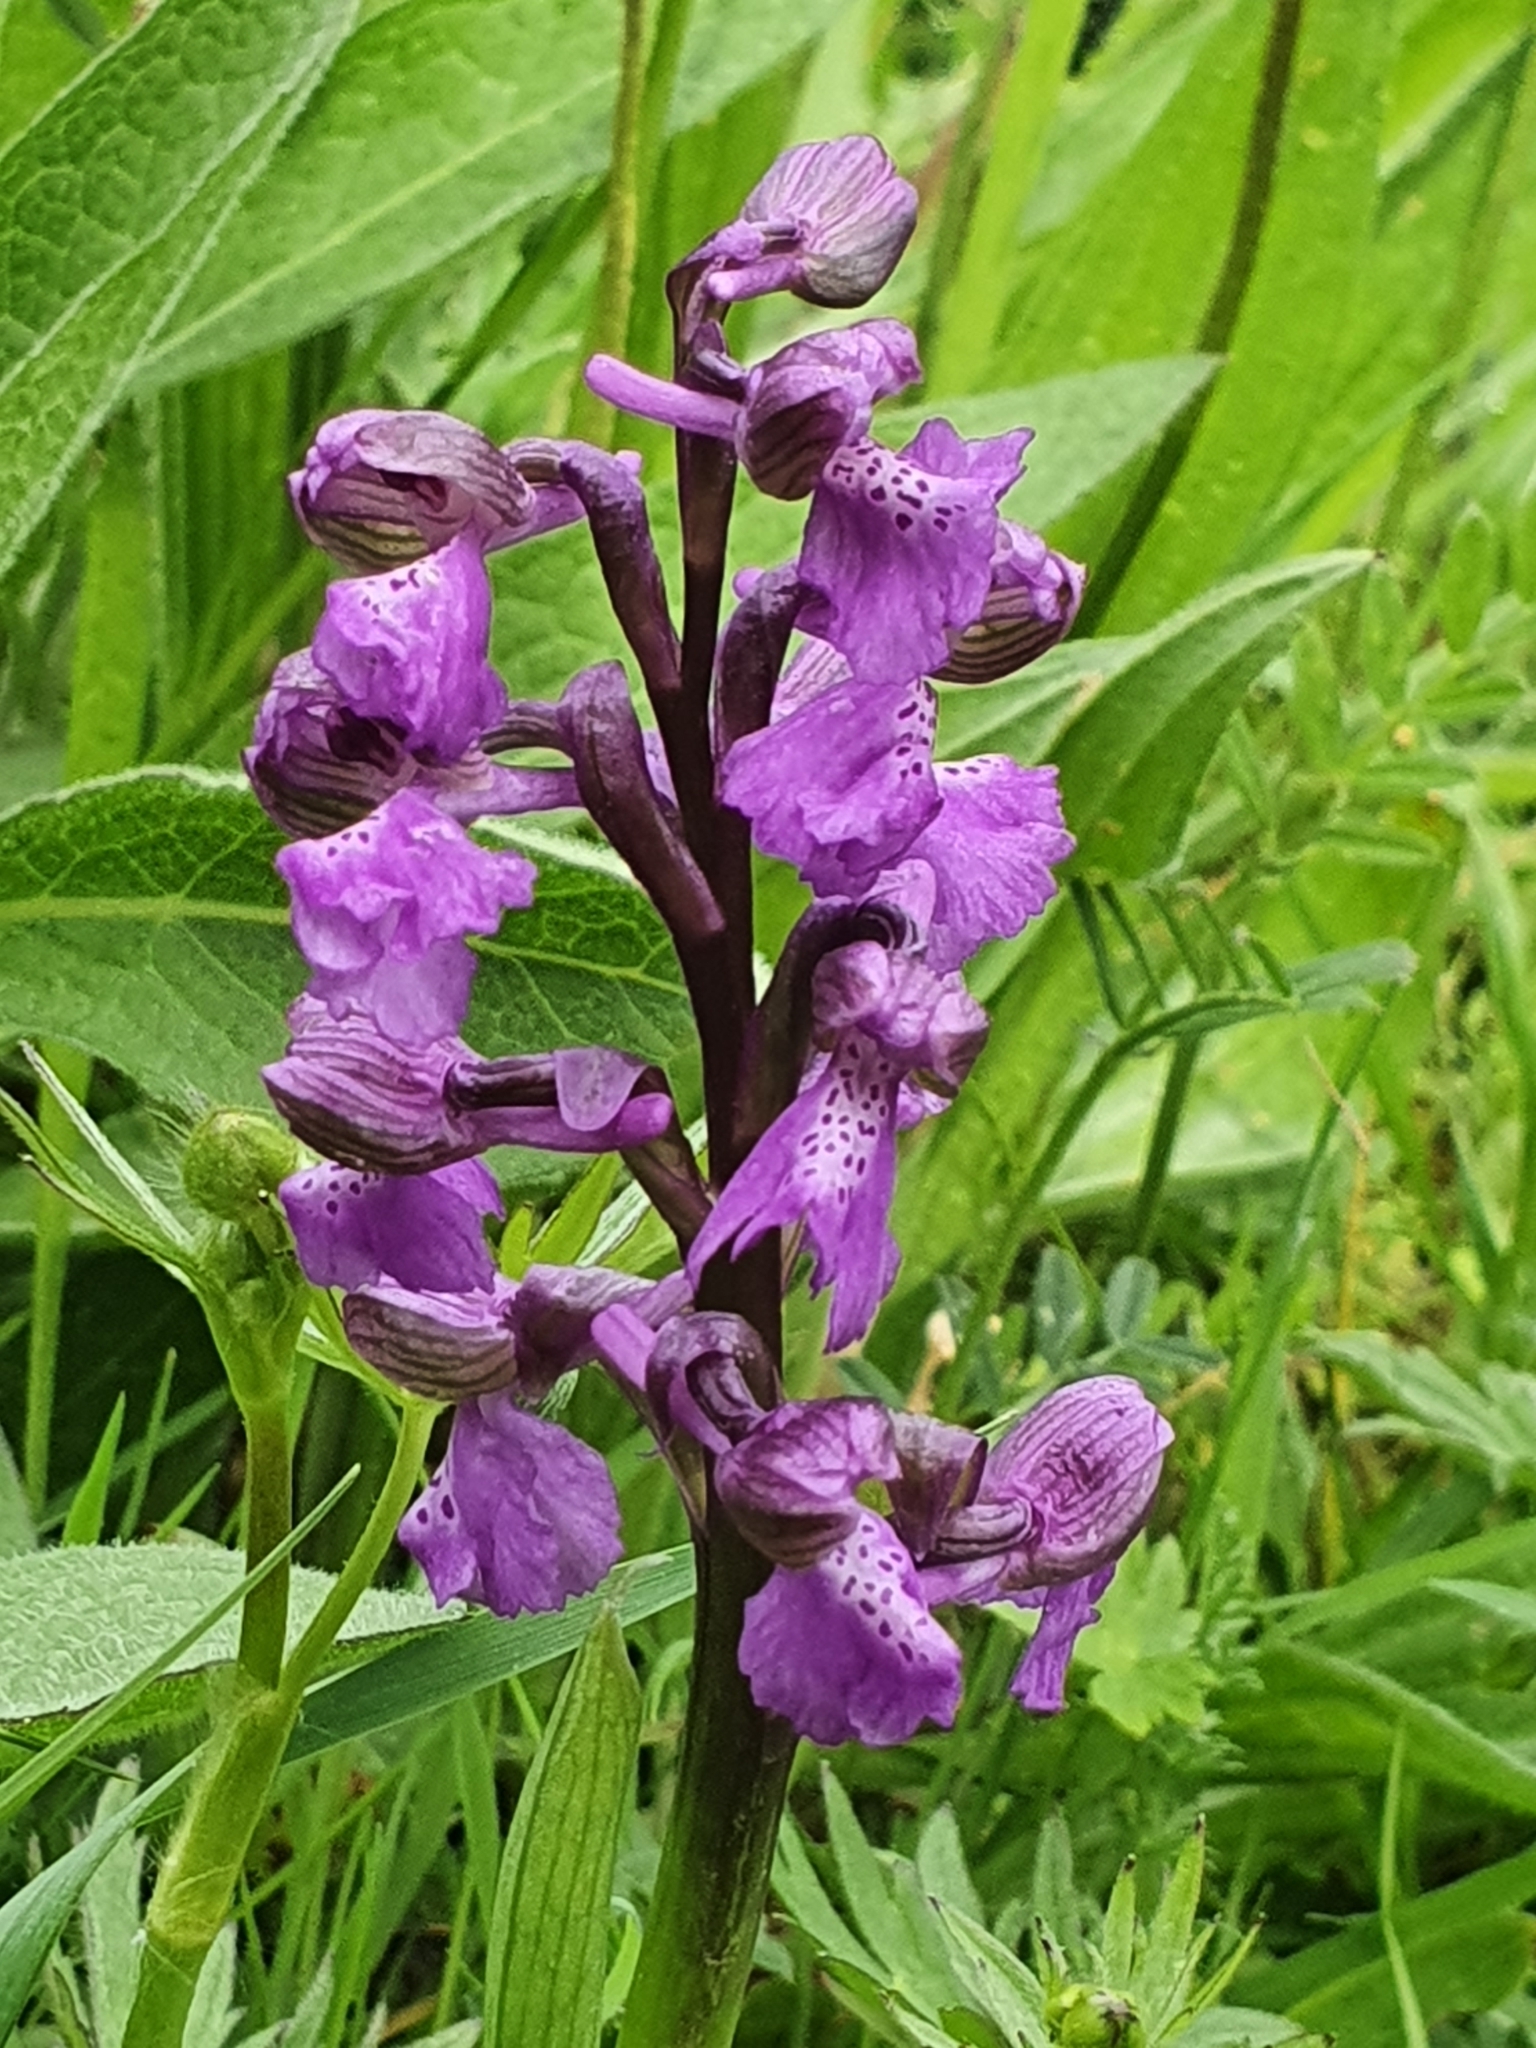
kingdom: Plantae
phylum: Tracheophyta
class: Liliopsida
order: Asparagales
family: Orchidaceae
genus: Anacamptis
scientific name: Anacamptis morio
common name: Green-winged orchid
